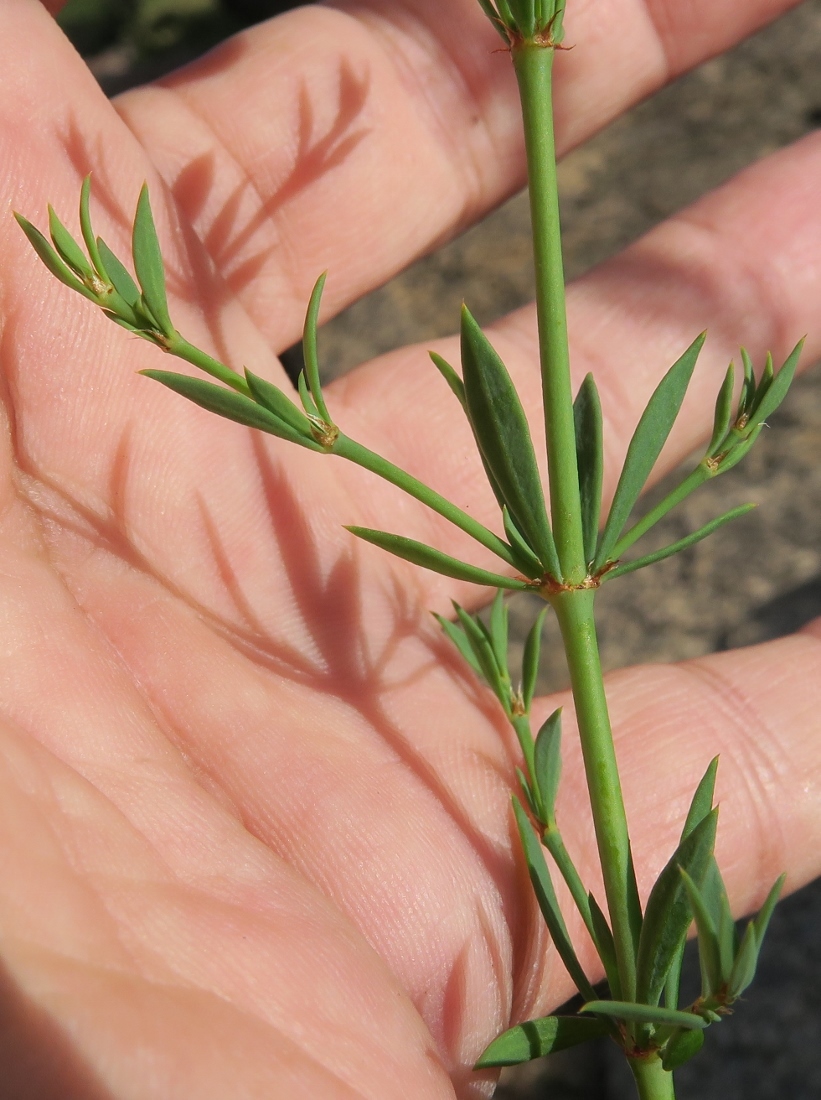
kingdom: Plantae
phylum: Tracheophyta
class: Magnoliopsida
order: Caryophyllales
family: Caryophyllaceae
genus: Pollichia
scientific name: Pollichia campestris
